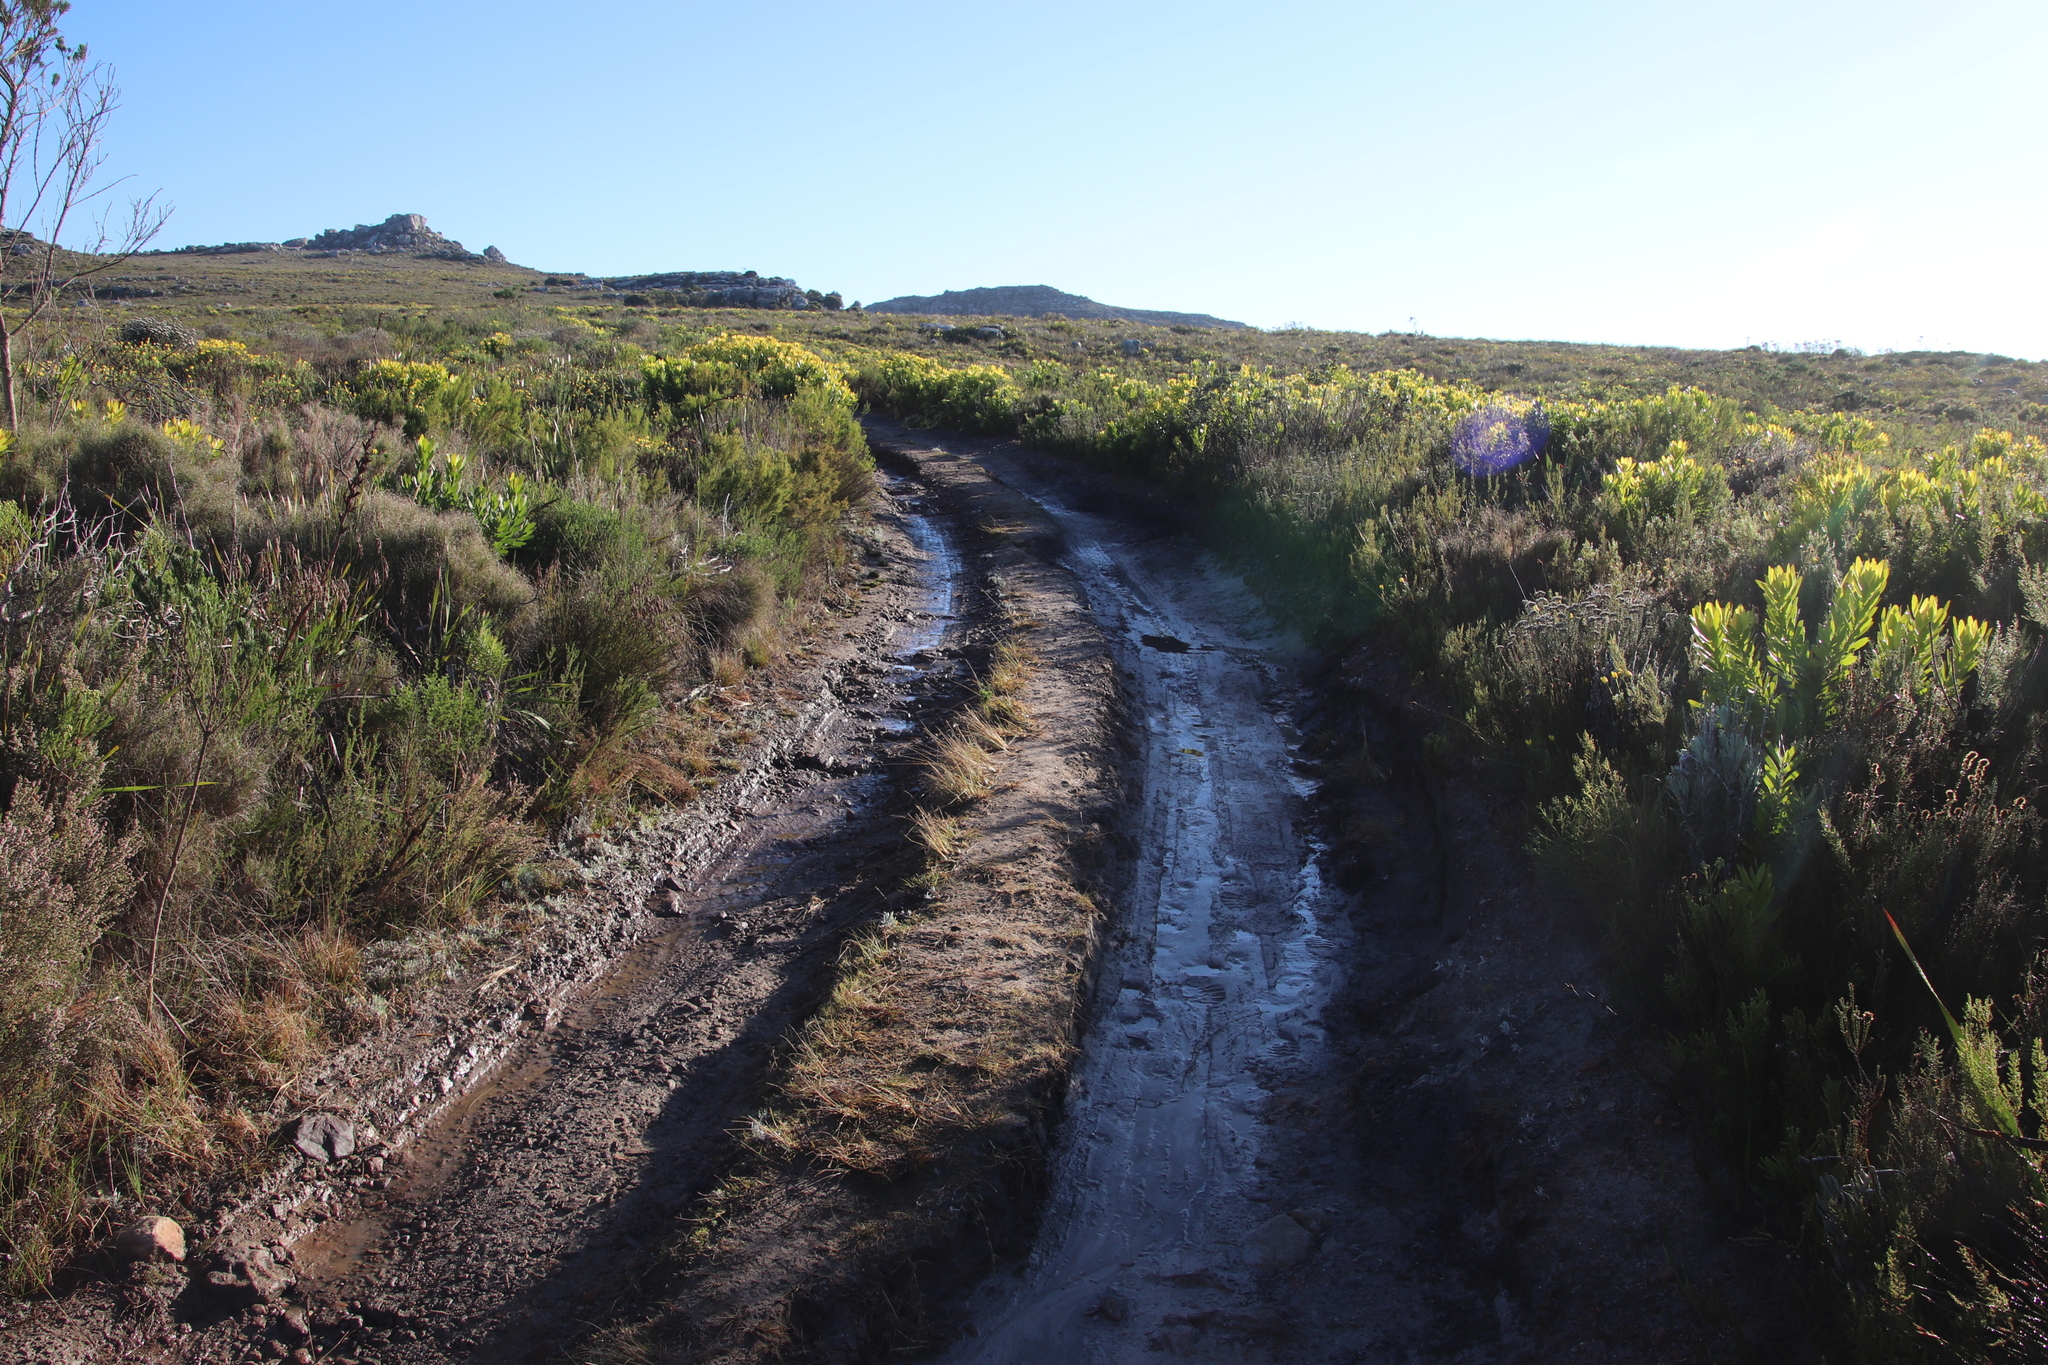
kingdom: Plantae
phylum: Tracheophyta
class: Magnoliopsida
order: Proteales
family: Proteaceae
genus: Leucadendron
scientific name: Leucadendron laureolum
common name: Golden sunshinebush
